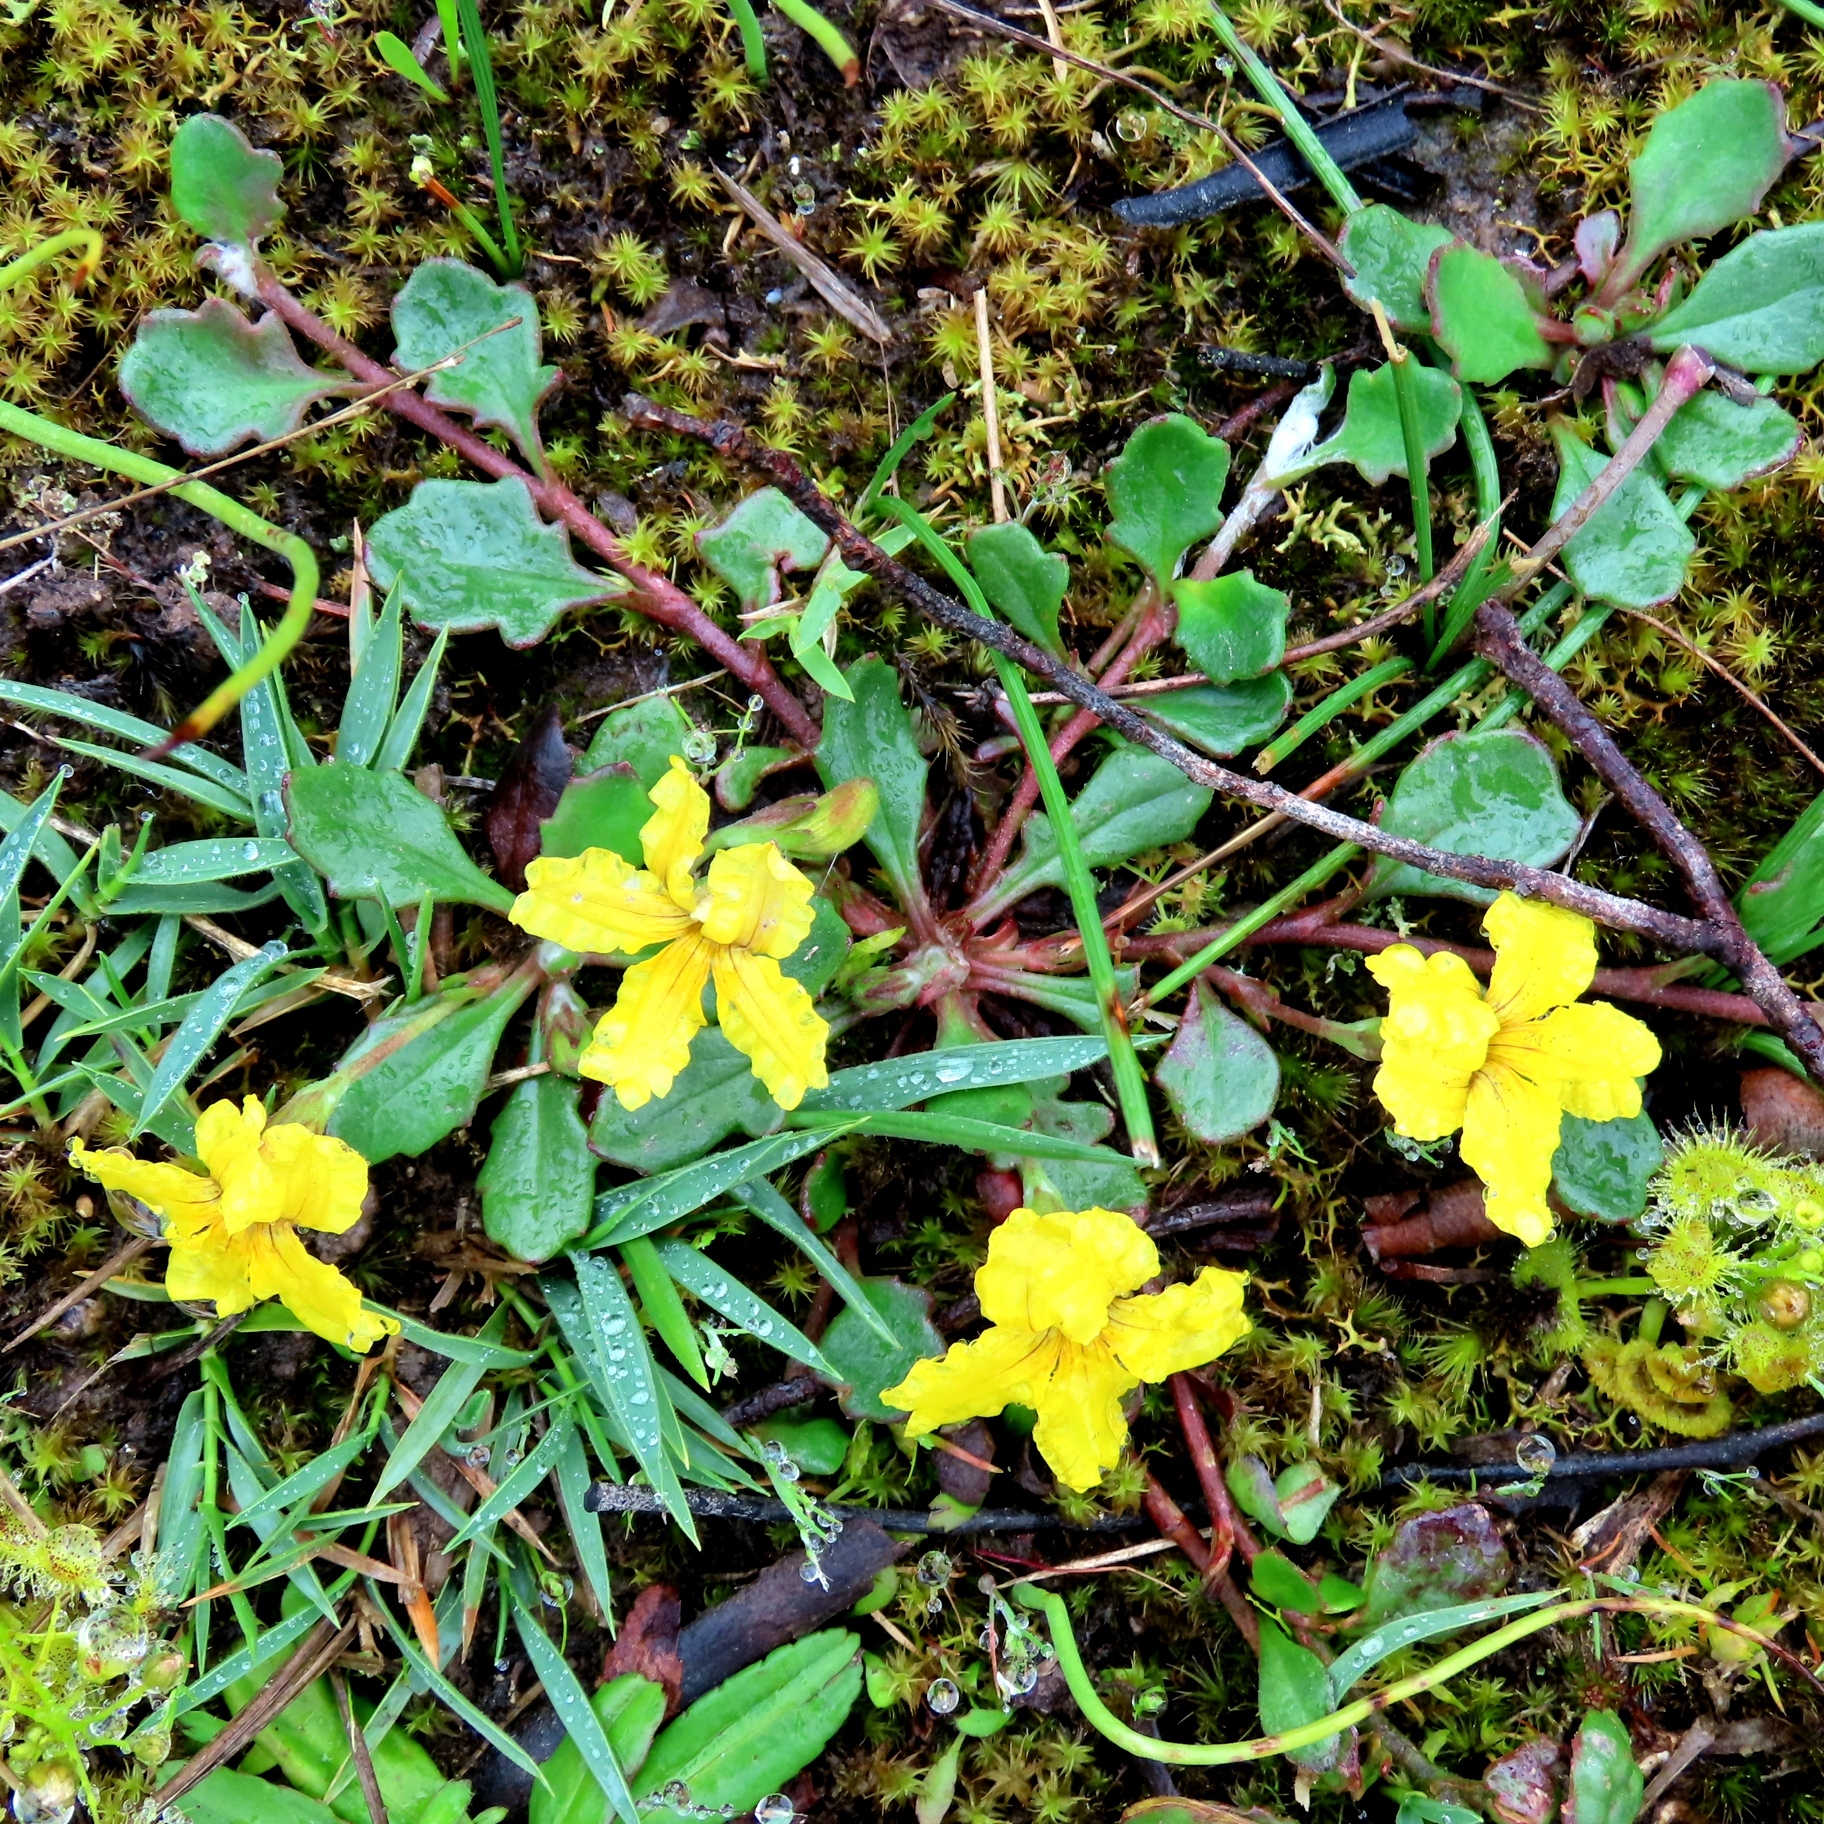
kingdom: Plantae
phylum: Tracheophyta
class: Magnoliopsida
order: Asterales
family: Goodeniaceae
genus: Goodenia
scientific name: Goodenia lanata
